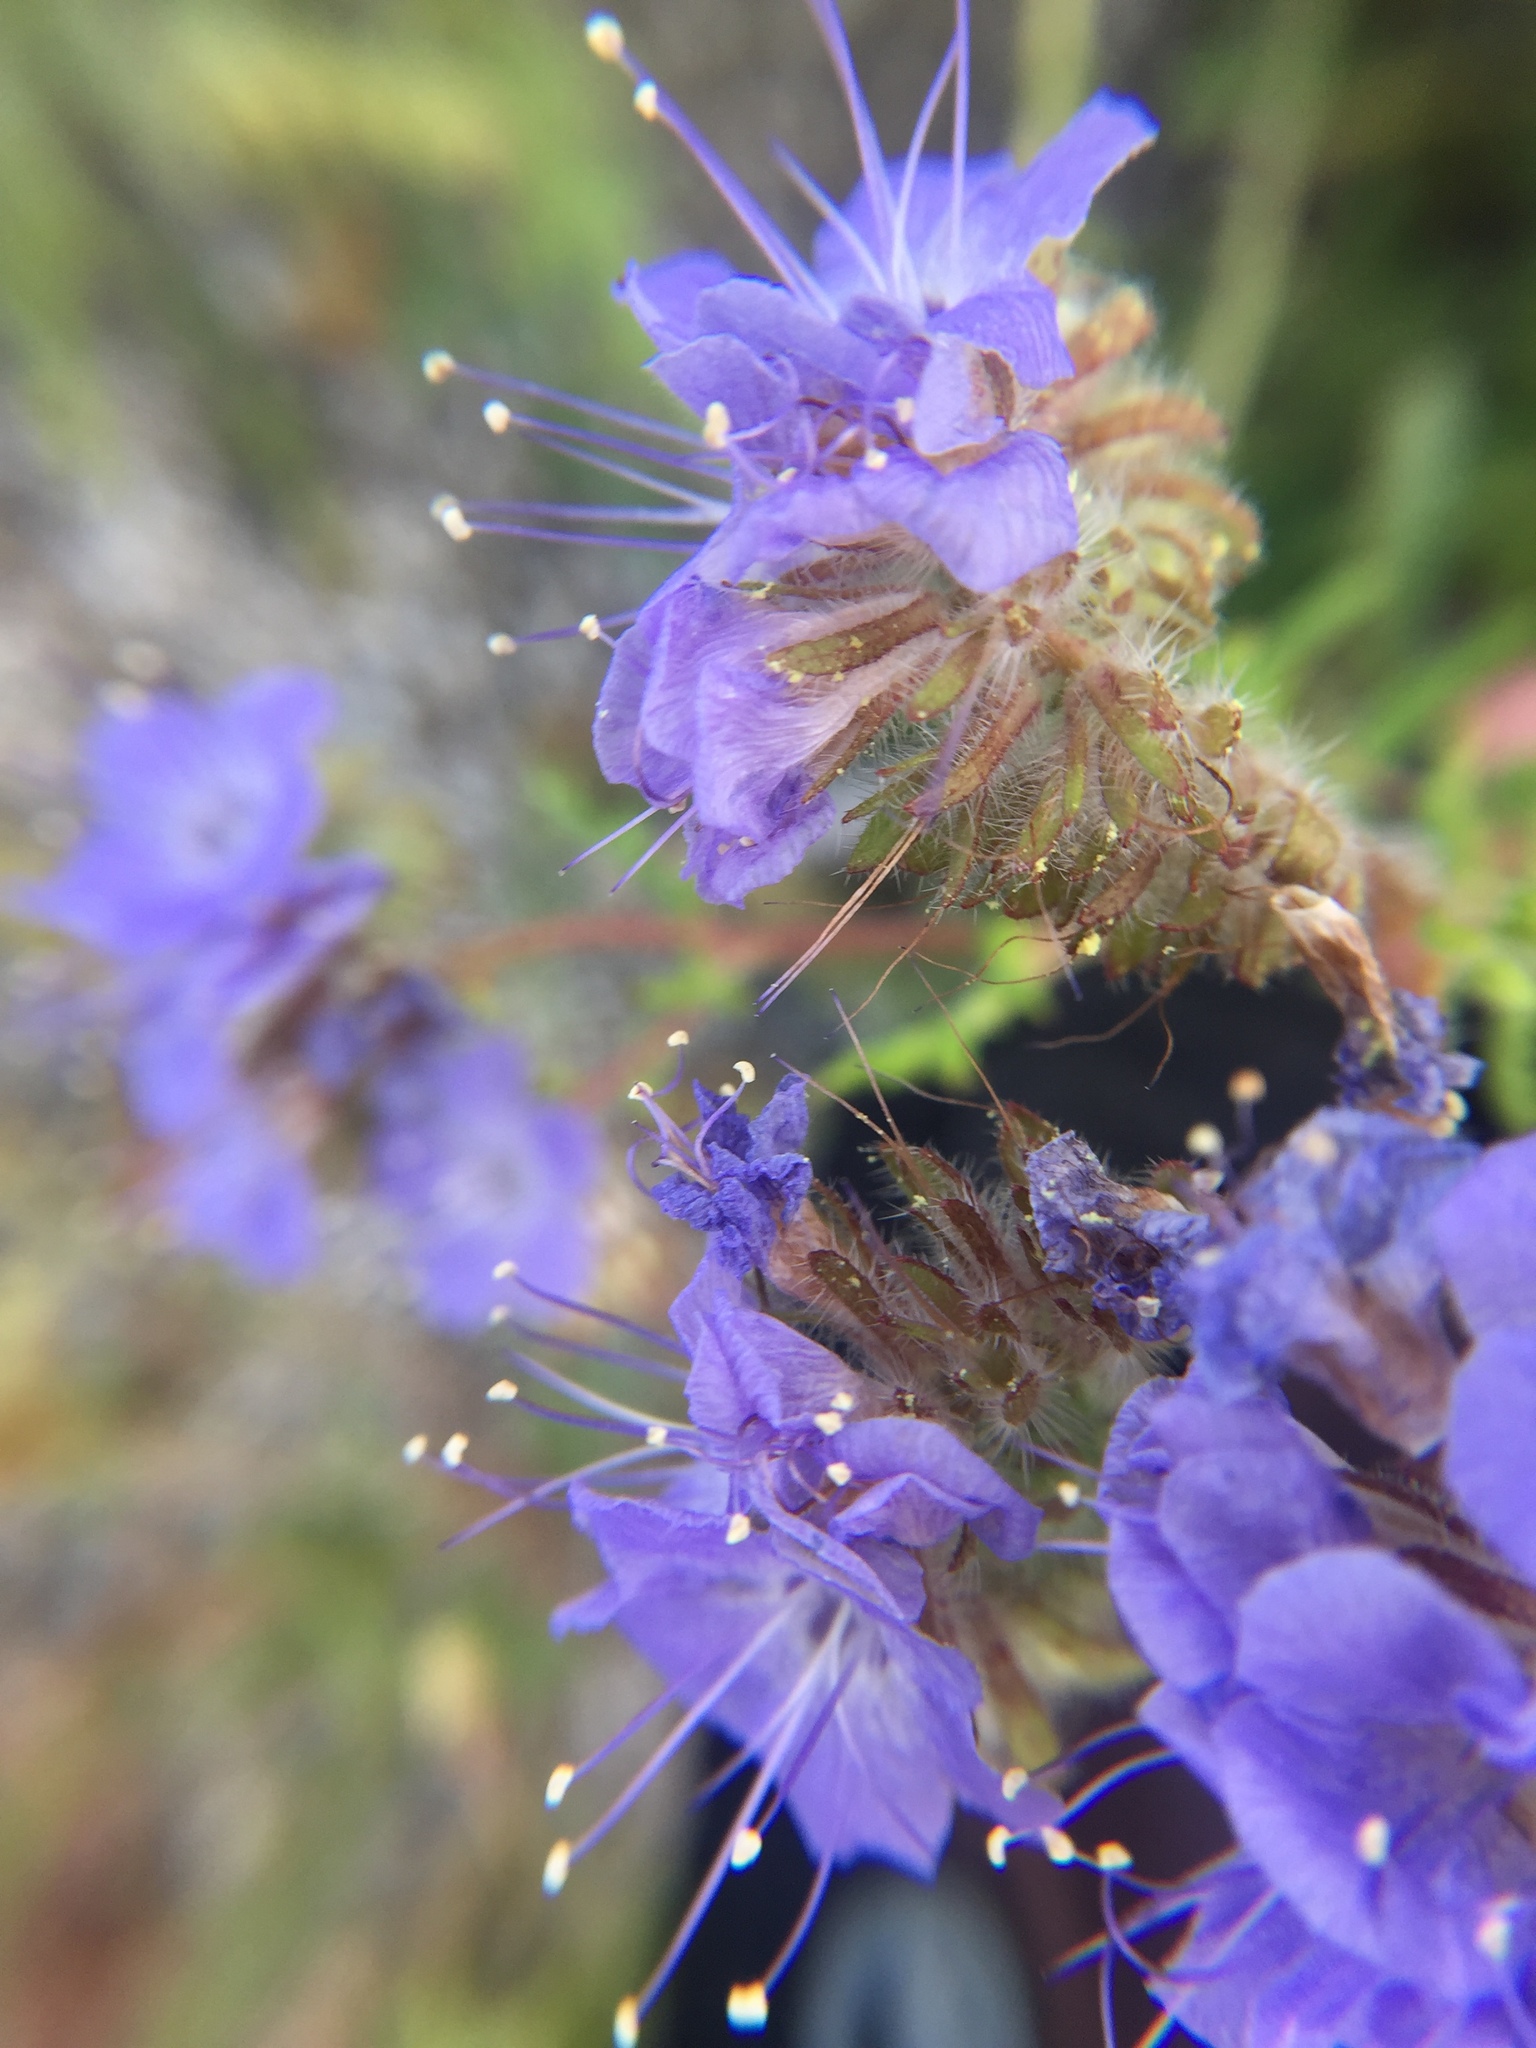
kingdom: Plantae
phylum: Tracheophyta
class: Magnoliopsida
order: Boraginales
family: Hydrophyllaceae
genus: Phacelia
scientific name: Phacelia distans
